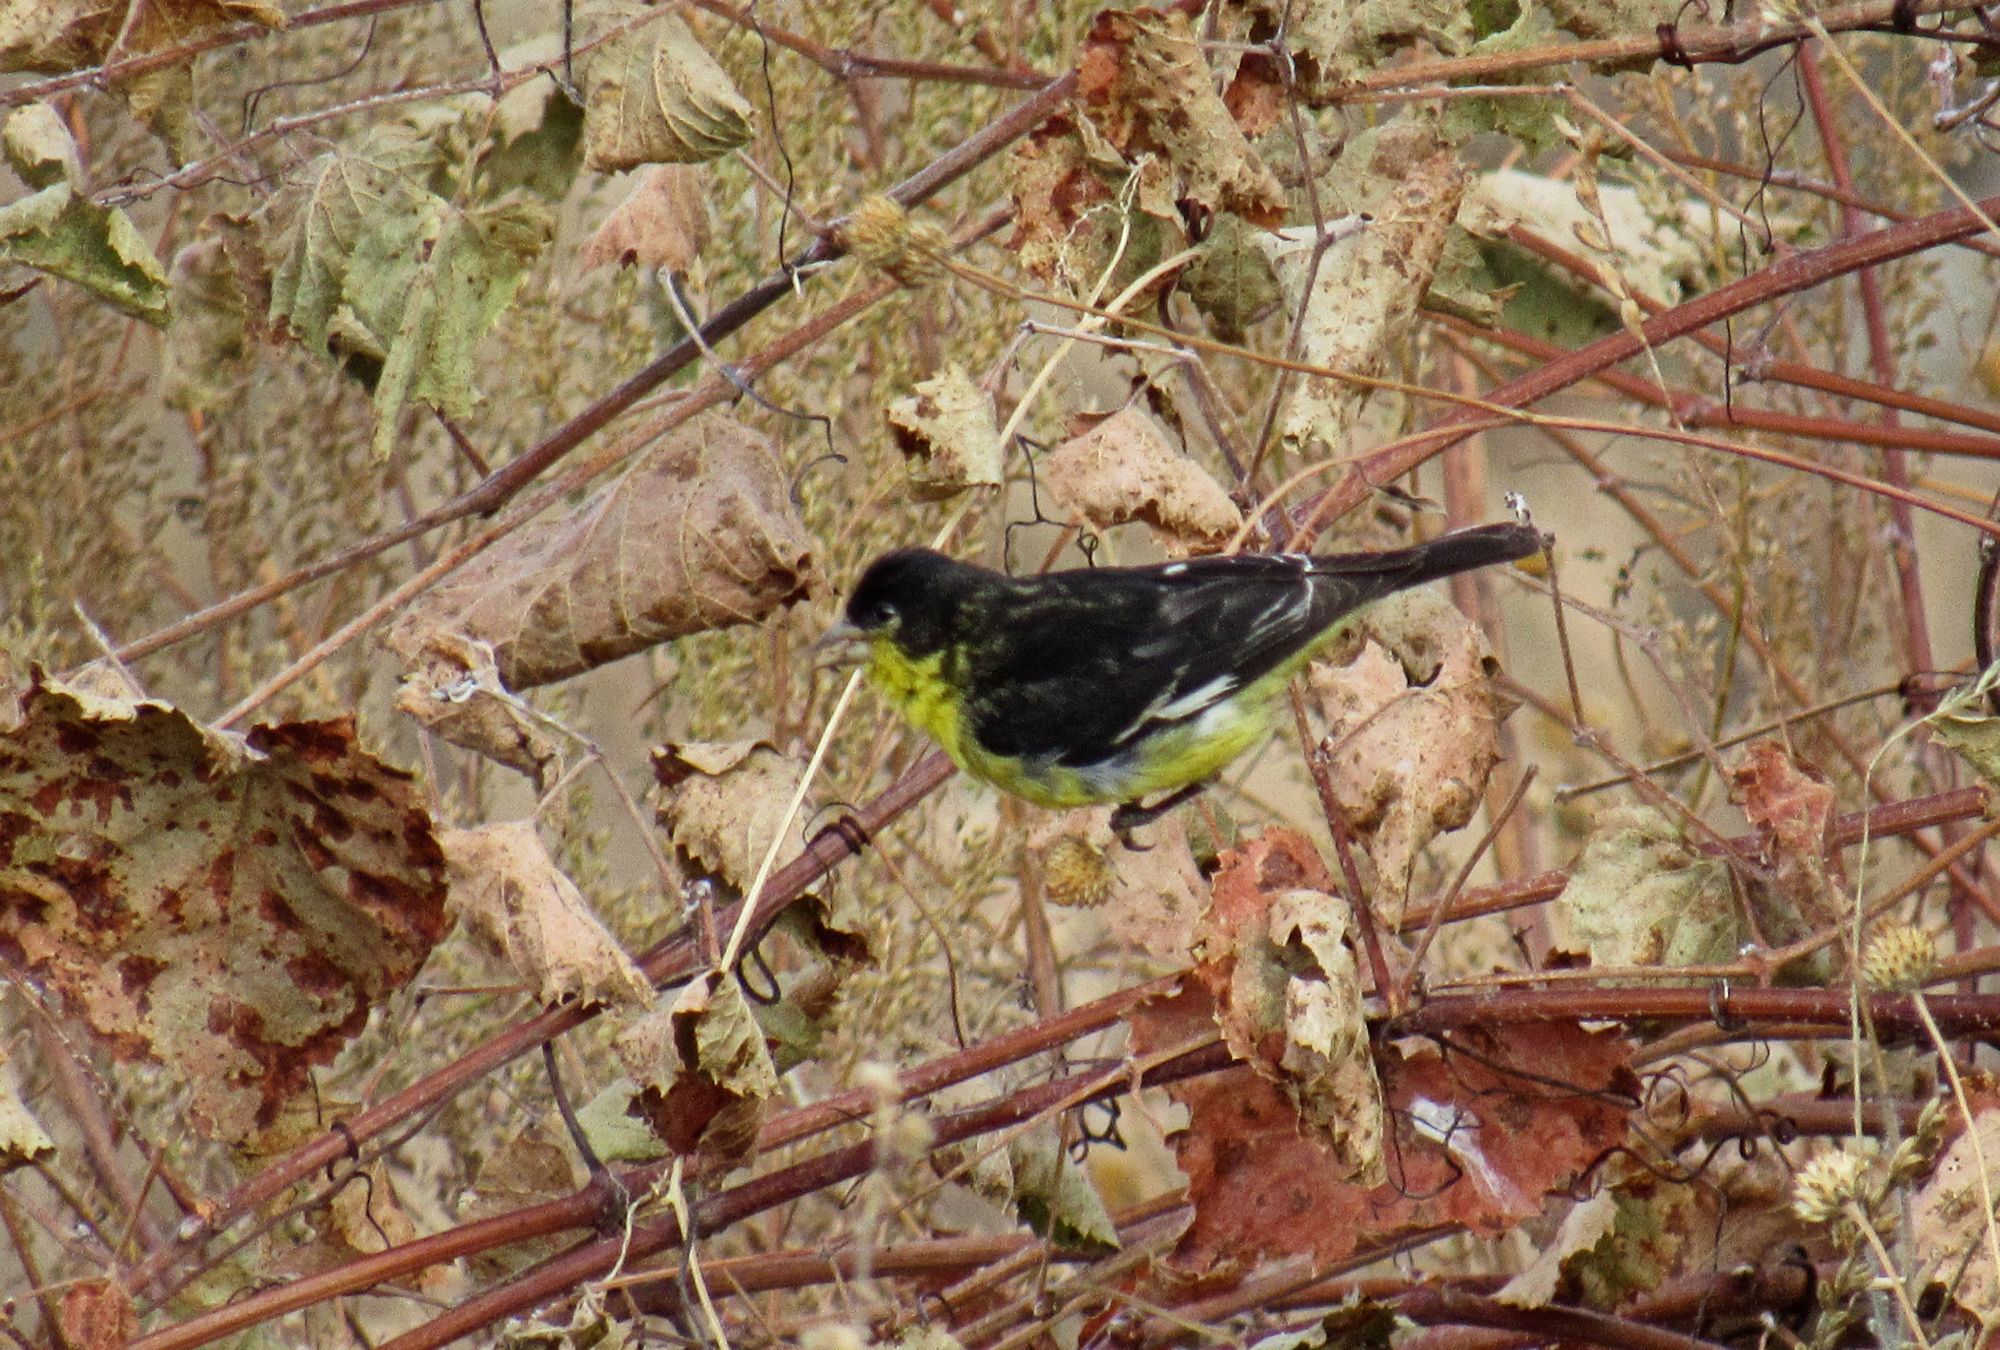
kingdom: Animalia
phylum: Chordata
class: Aves
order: Passeriformes
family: Fringillidae
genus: Spinus
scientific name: Spinus psaltria
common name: Lesser goldfinch
